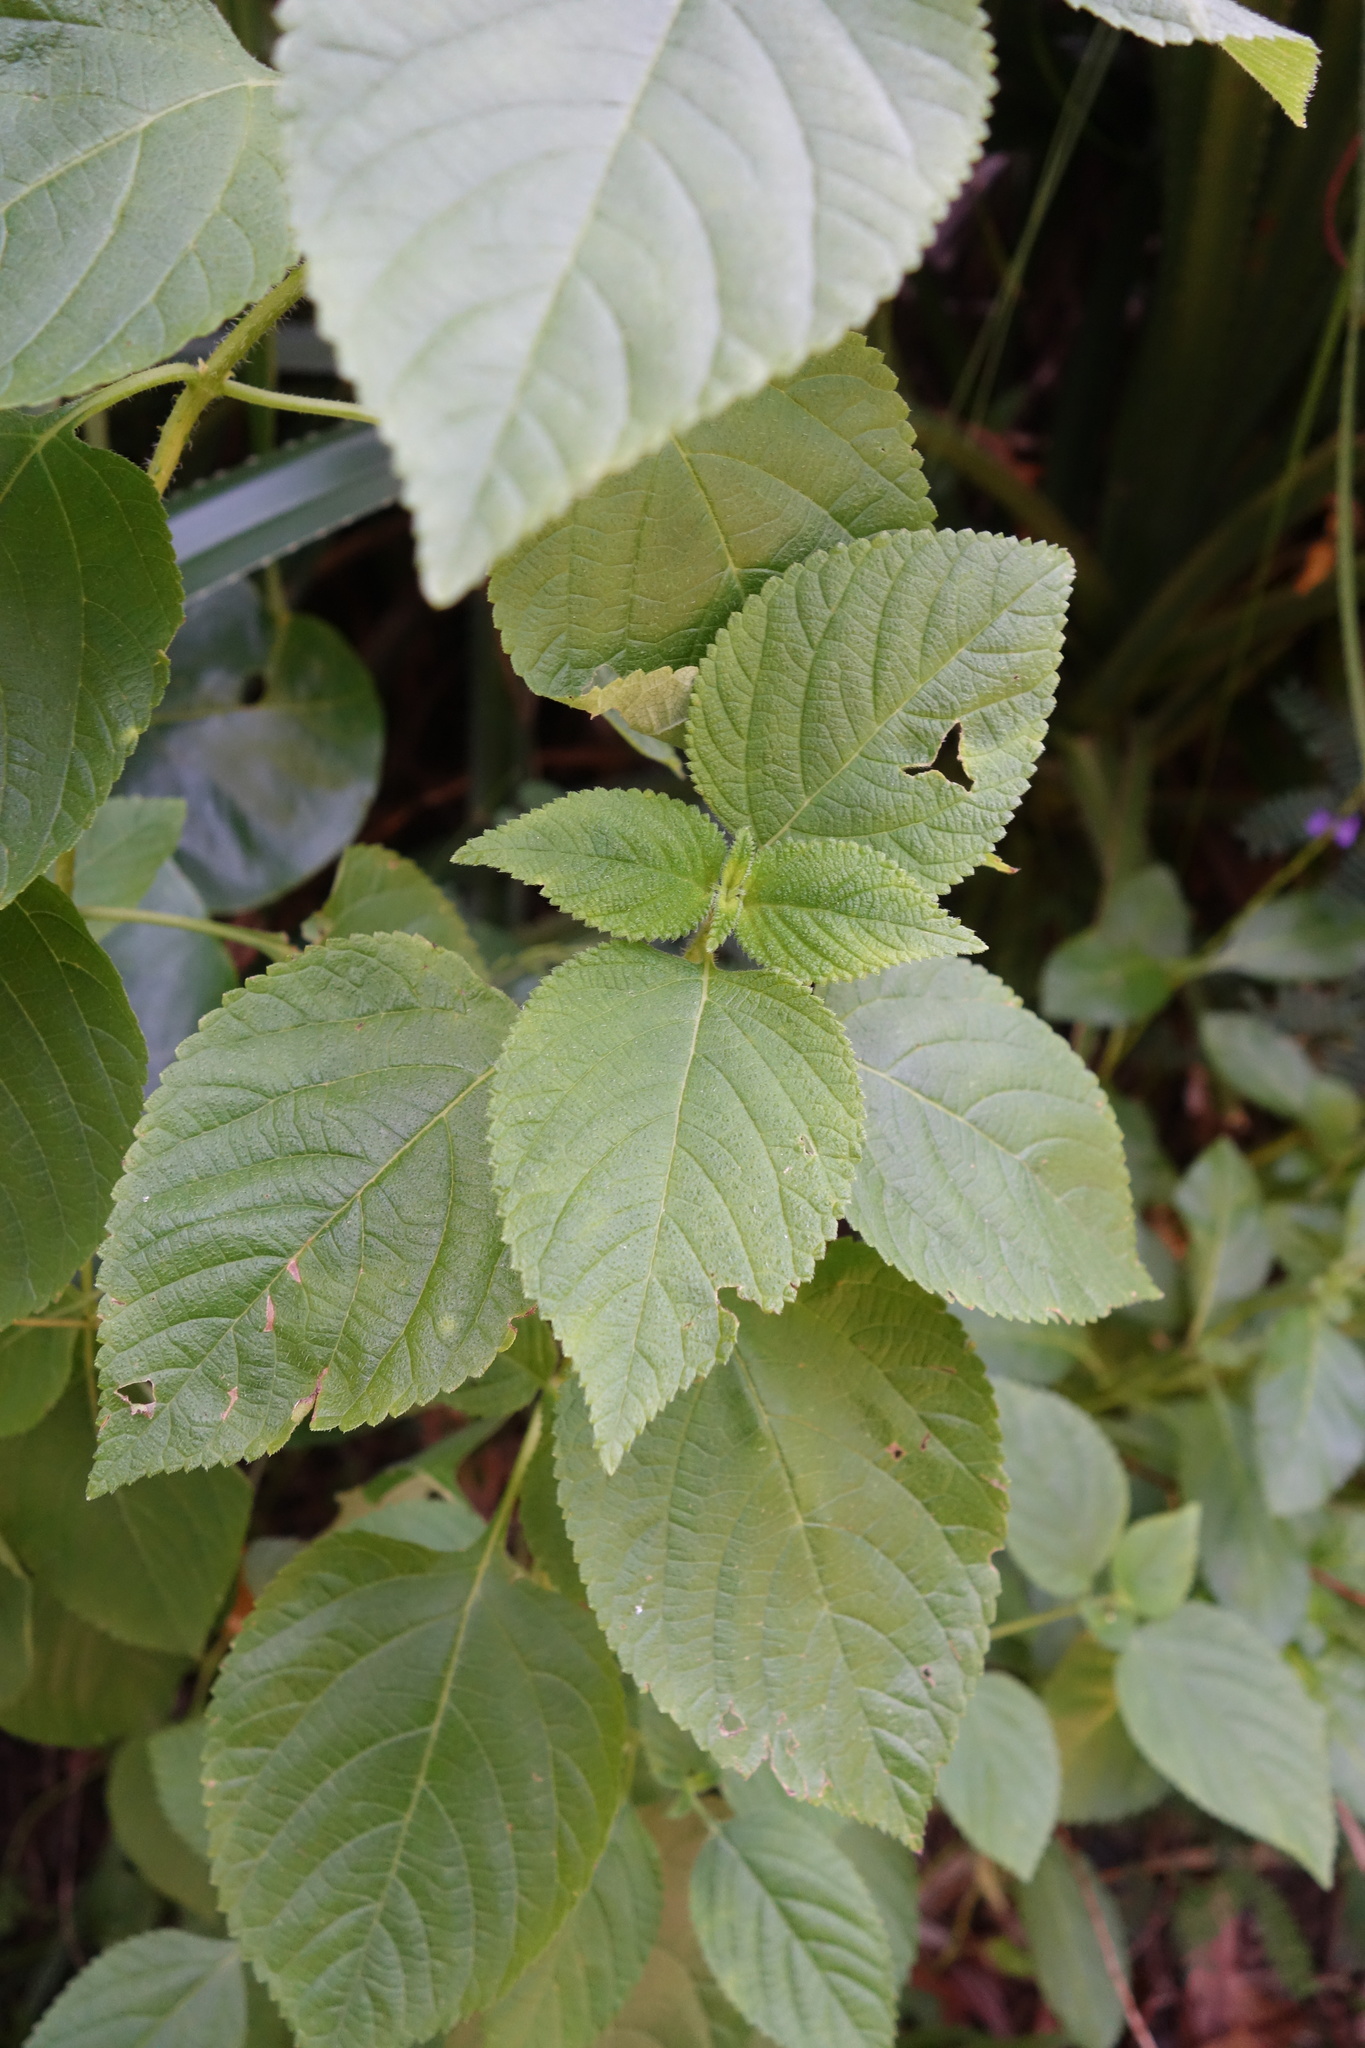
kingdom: Plantae
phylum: Tracheophyta
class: Magnoliopsida
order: Lamiales
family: Verbenaceae
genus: Lantana
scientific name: Lantana camara
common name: Lantana
